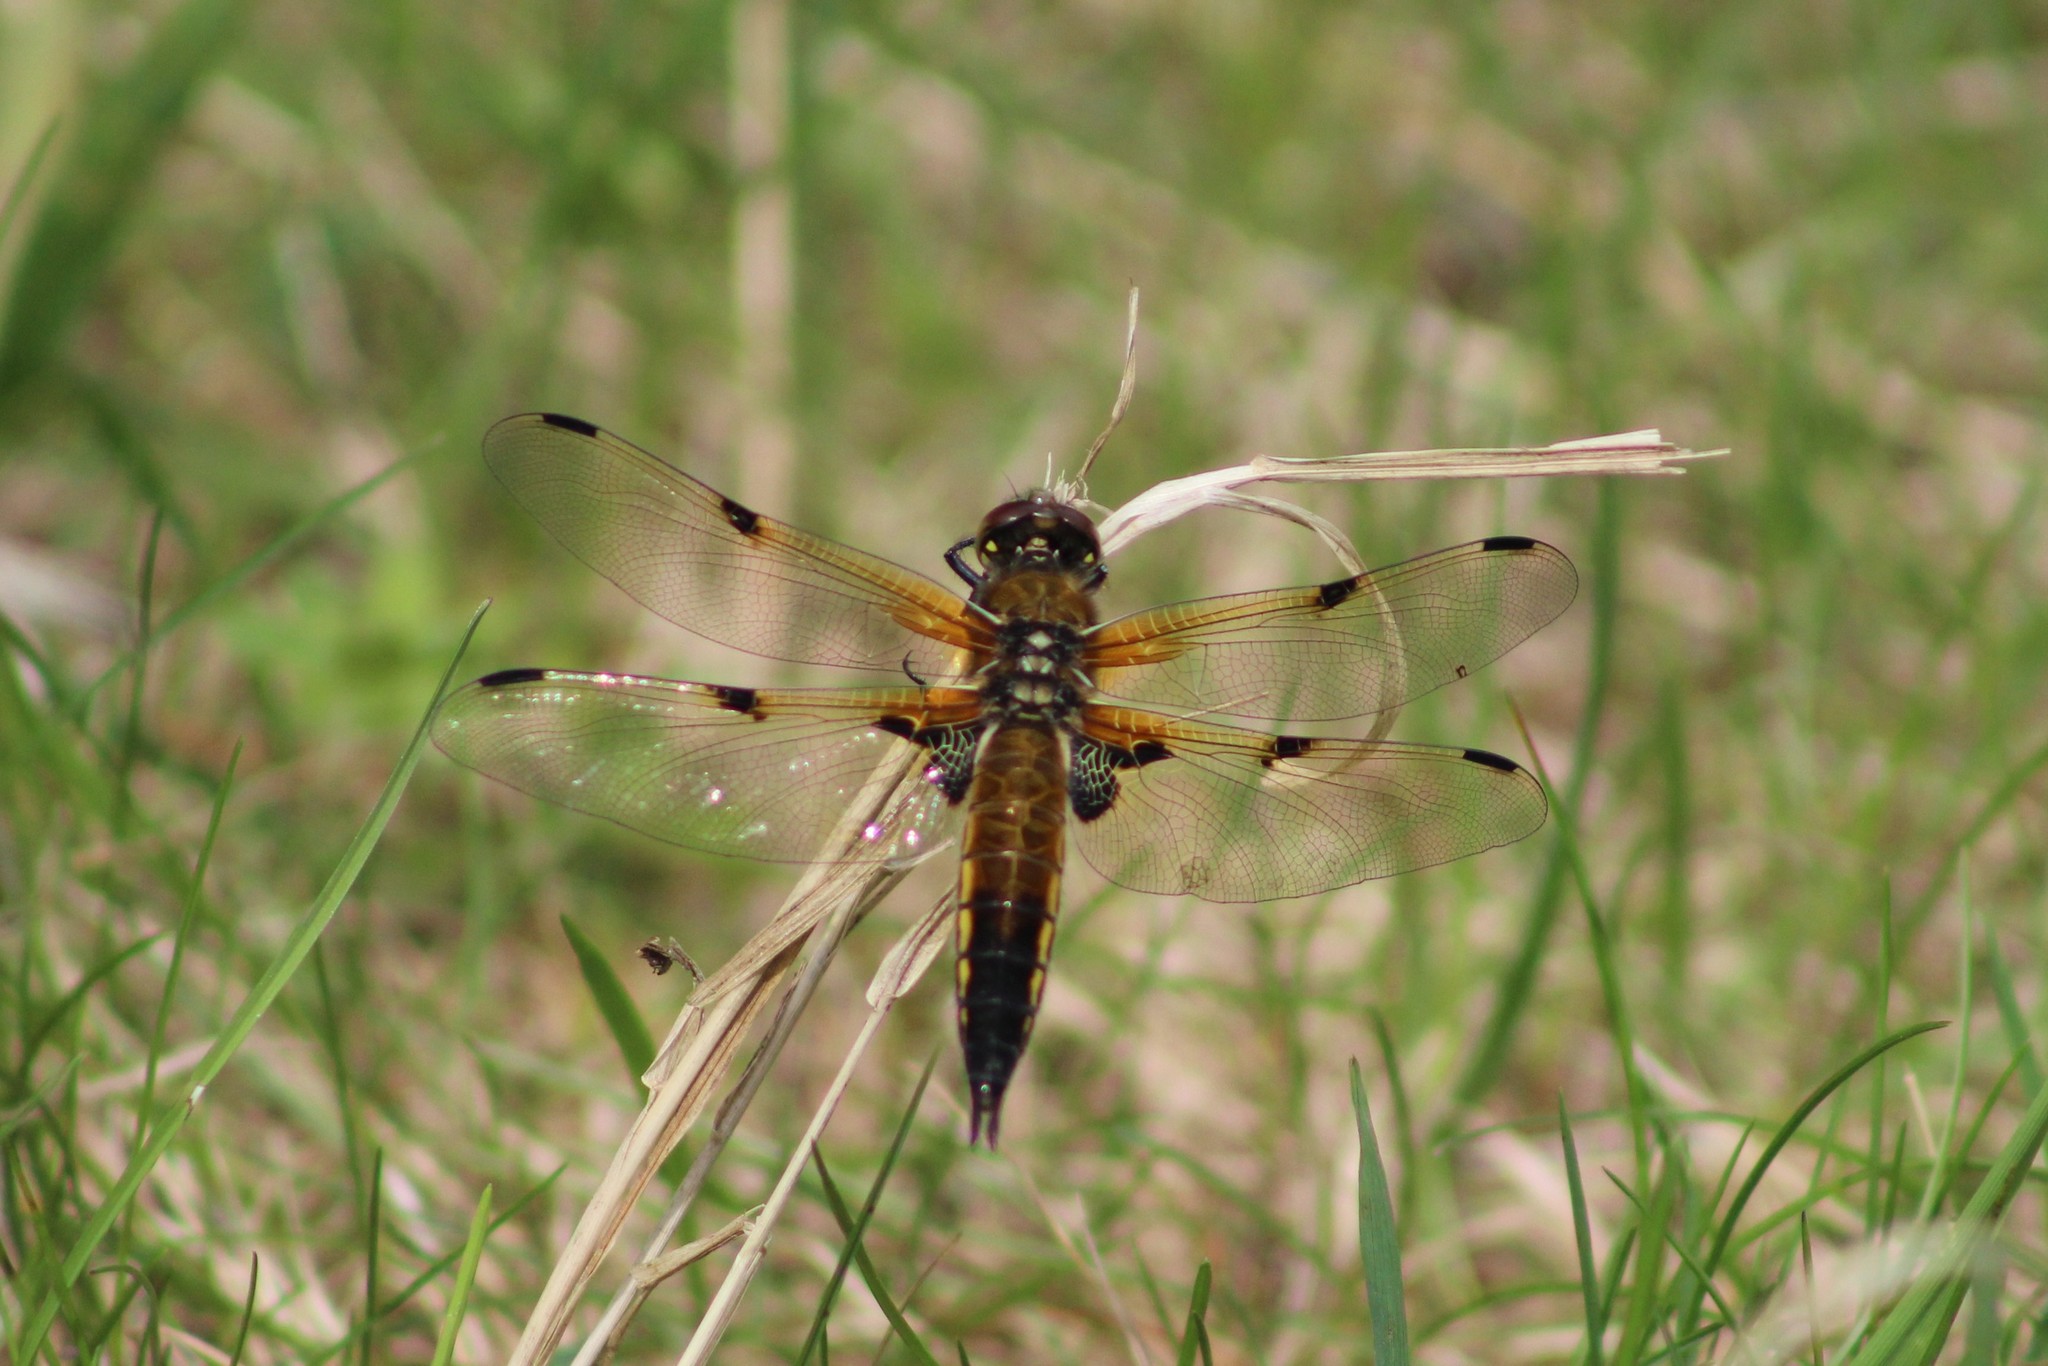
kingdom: Animalia
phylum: Arthropoda
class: Insecta
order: Odonata
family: Libellulidae
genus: Libellula
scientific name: Libellula quadrimaculata
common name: Four-spotted chaser
